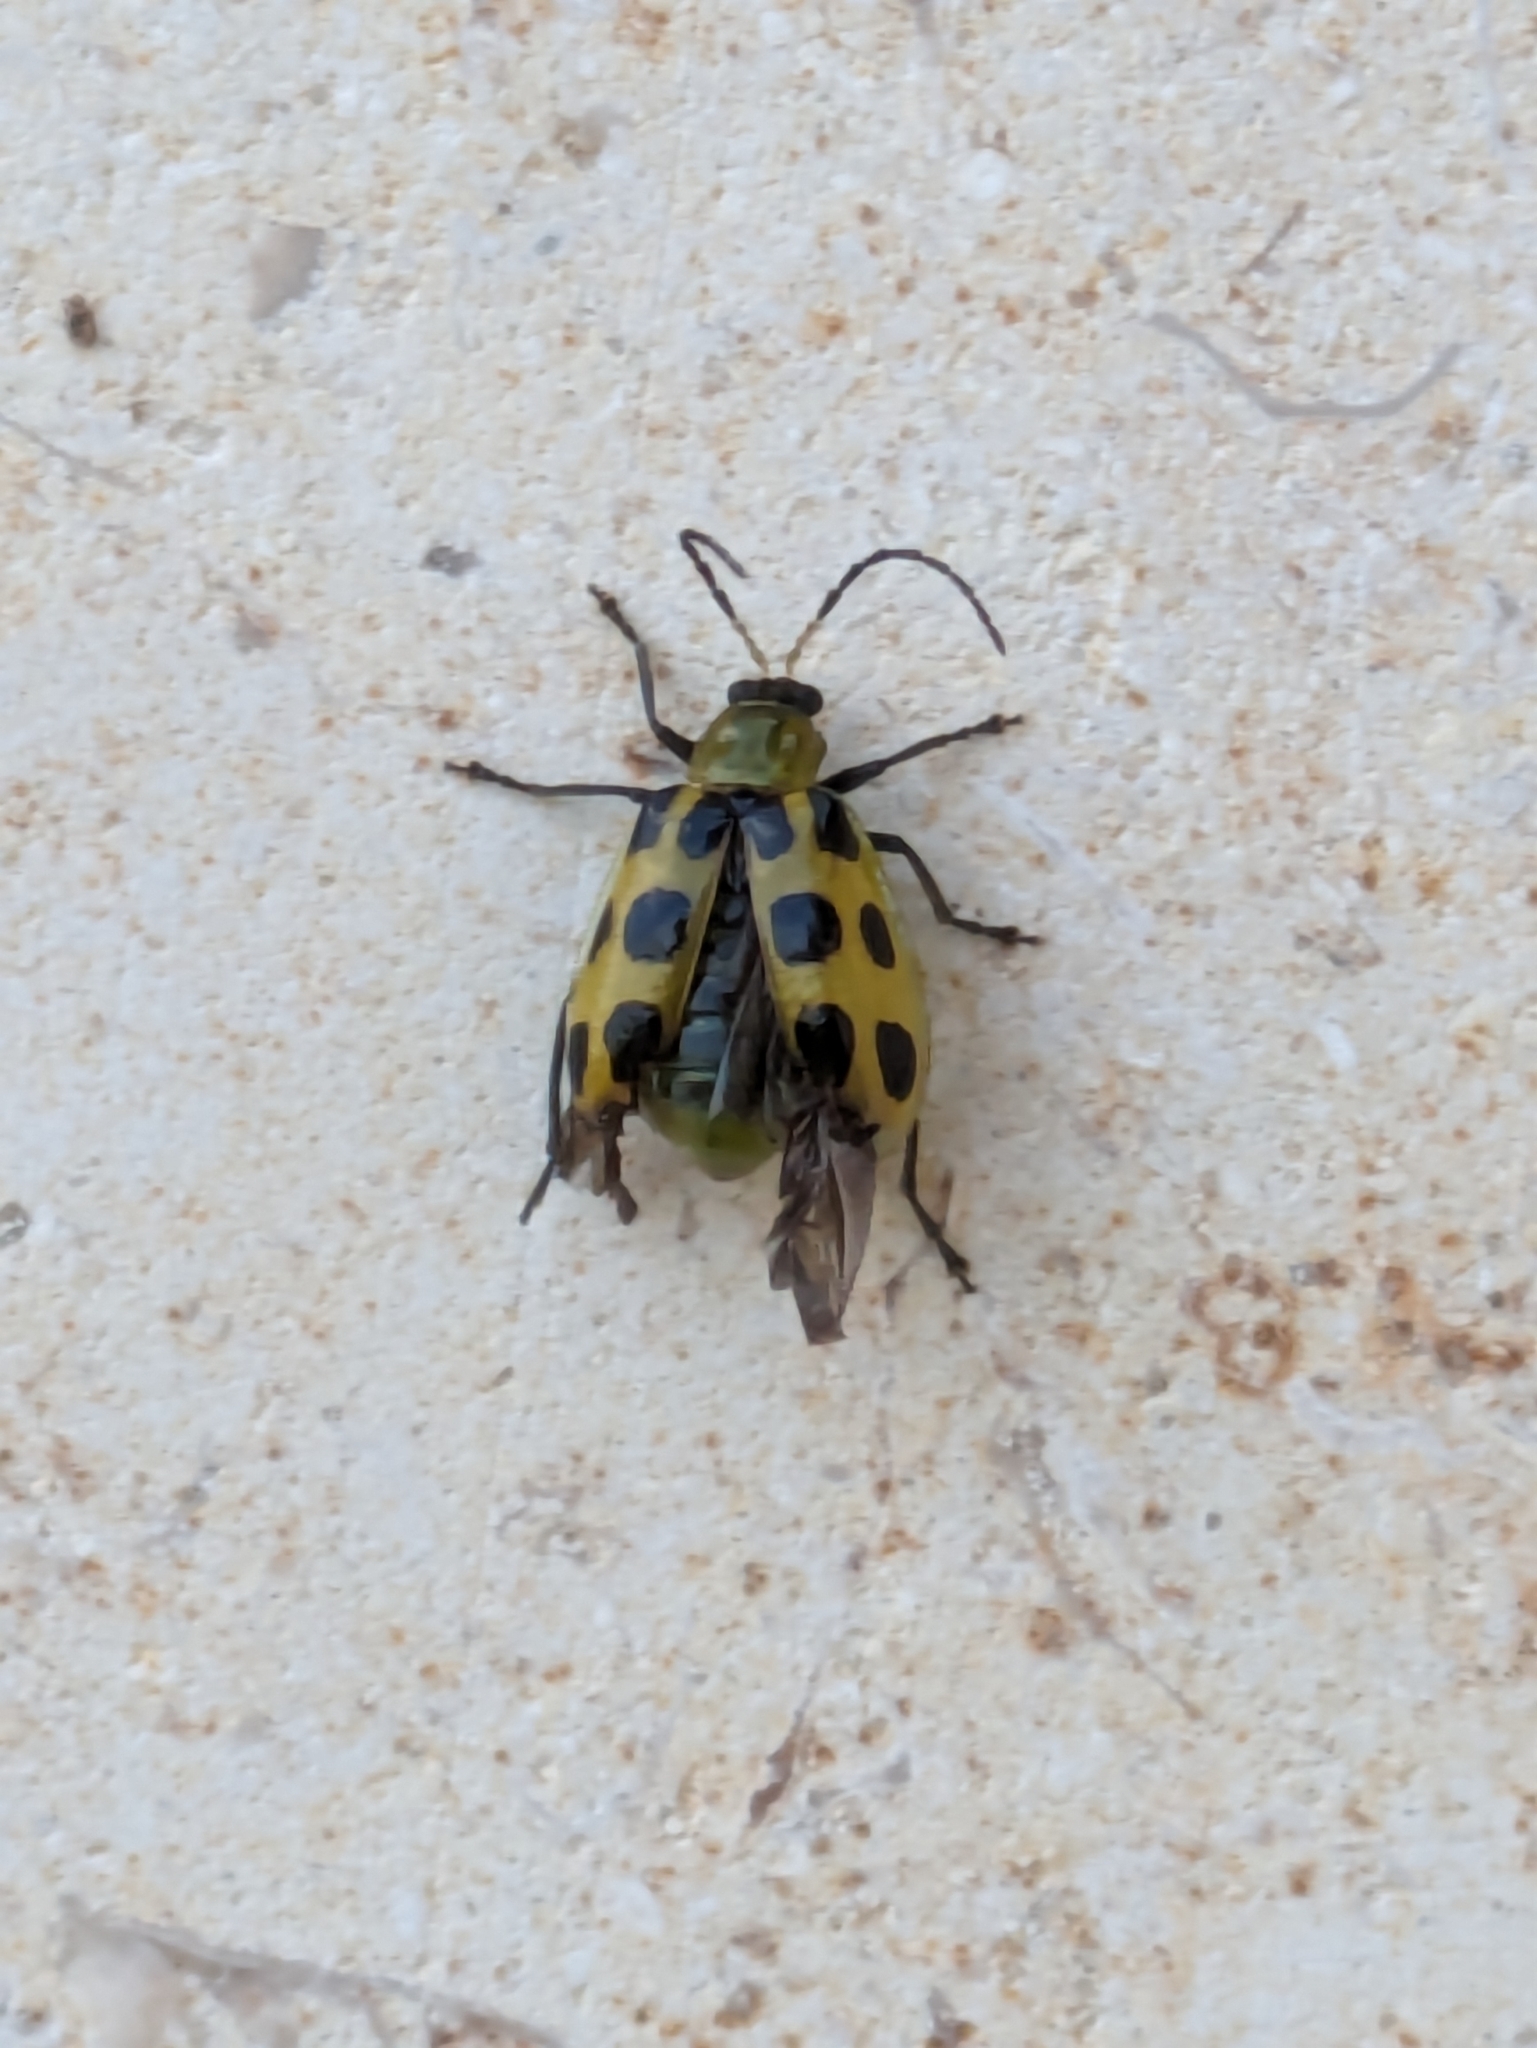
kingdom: Animalia
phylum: Arthropoda
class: Insecta
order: Coleoptera
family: Chrysomelidae
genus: Diabrotica
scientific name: Diabrotica undecimpunctata
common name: Spotted cucumber beetle
